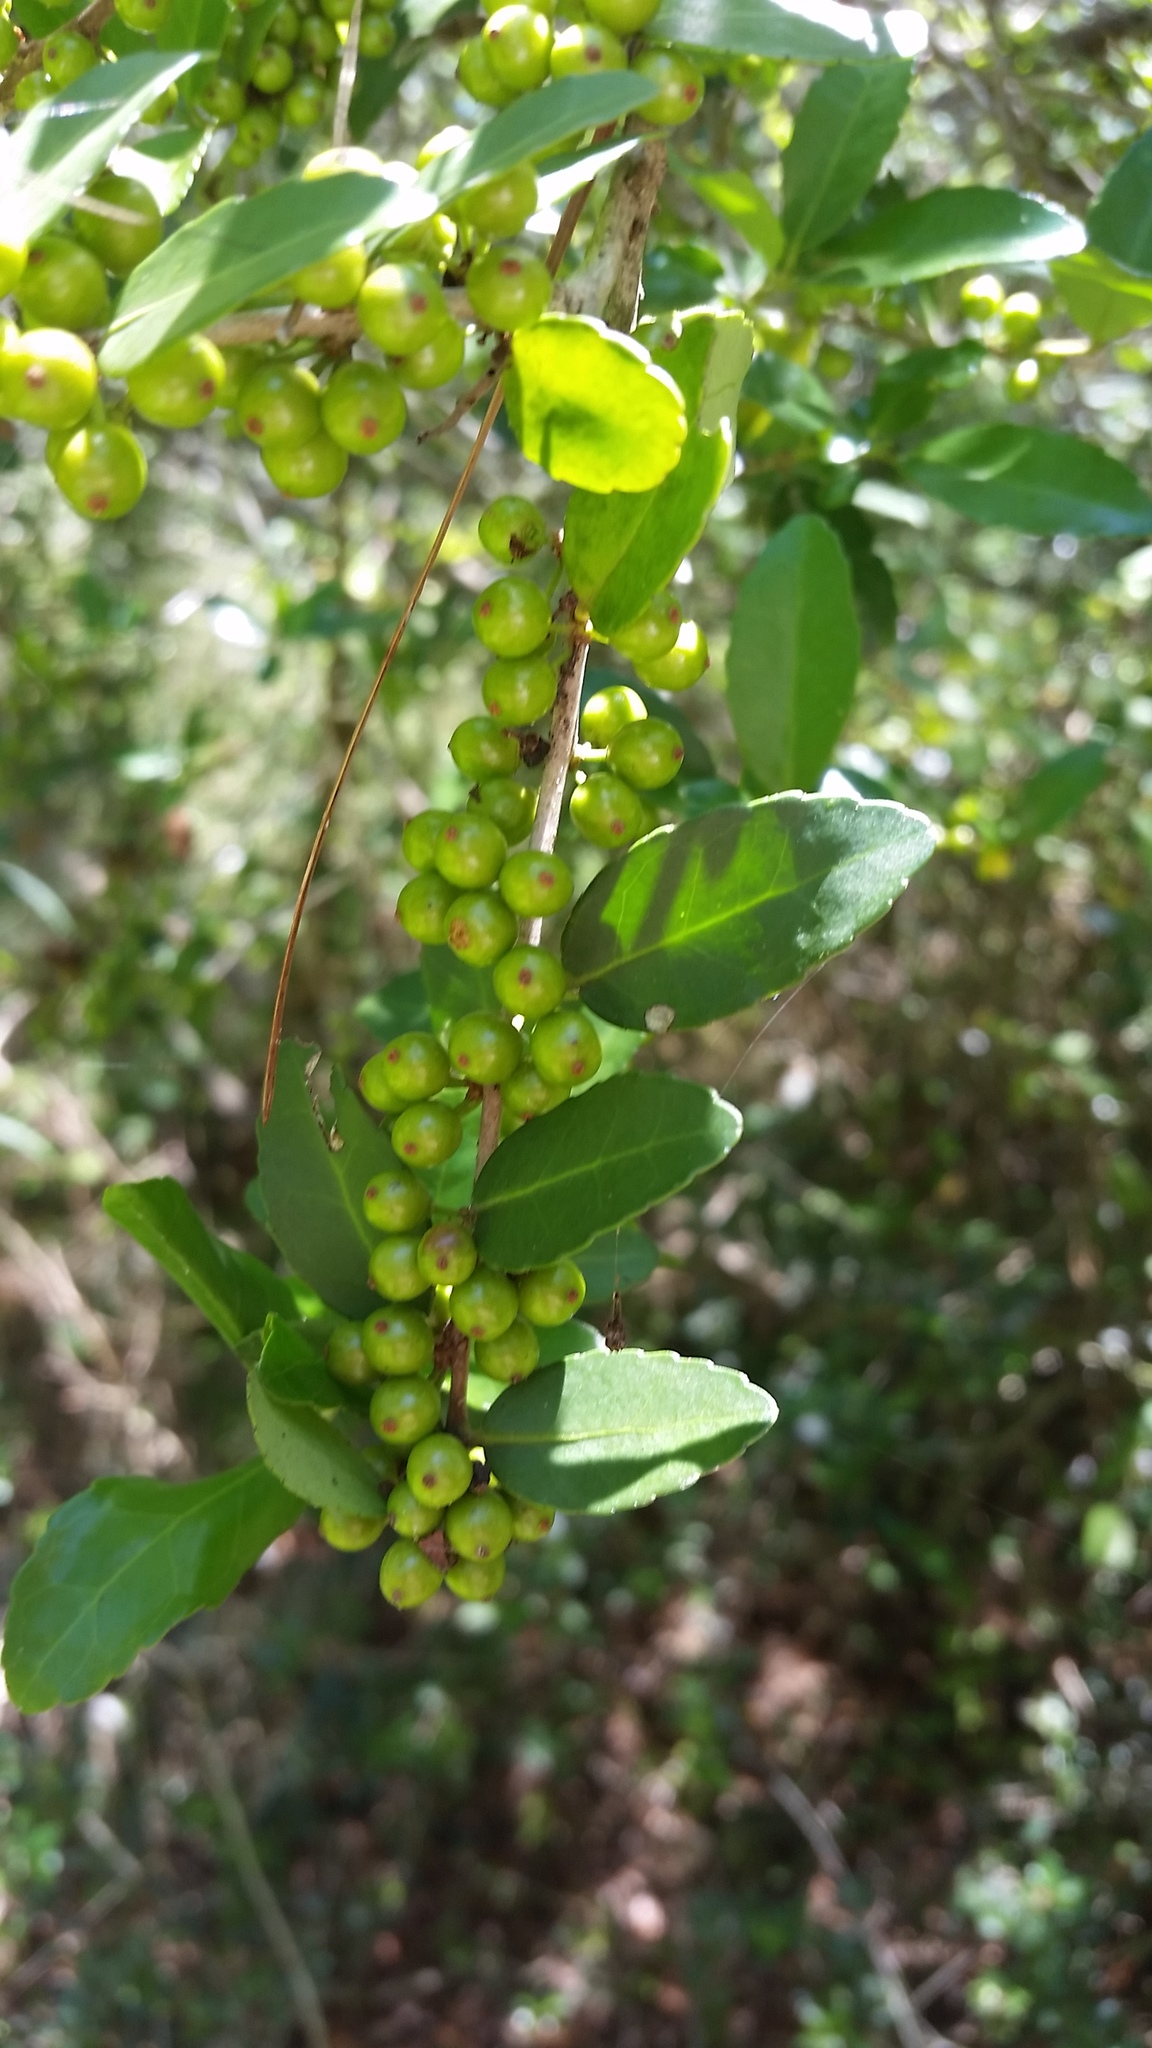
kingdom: Plantae
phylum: Tracheophyta
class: Magnoliopsida
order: Aquifoliales
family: Aquifoliaceae
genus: Ilex
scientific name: Ilex vomitoria
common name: Yaupon holly
